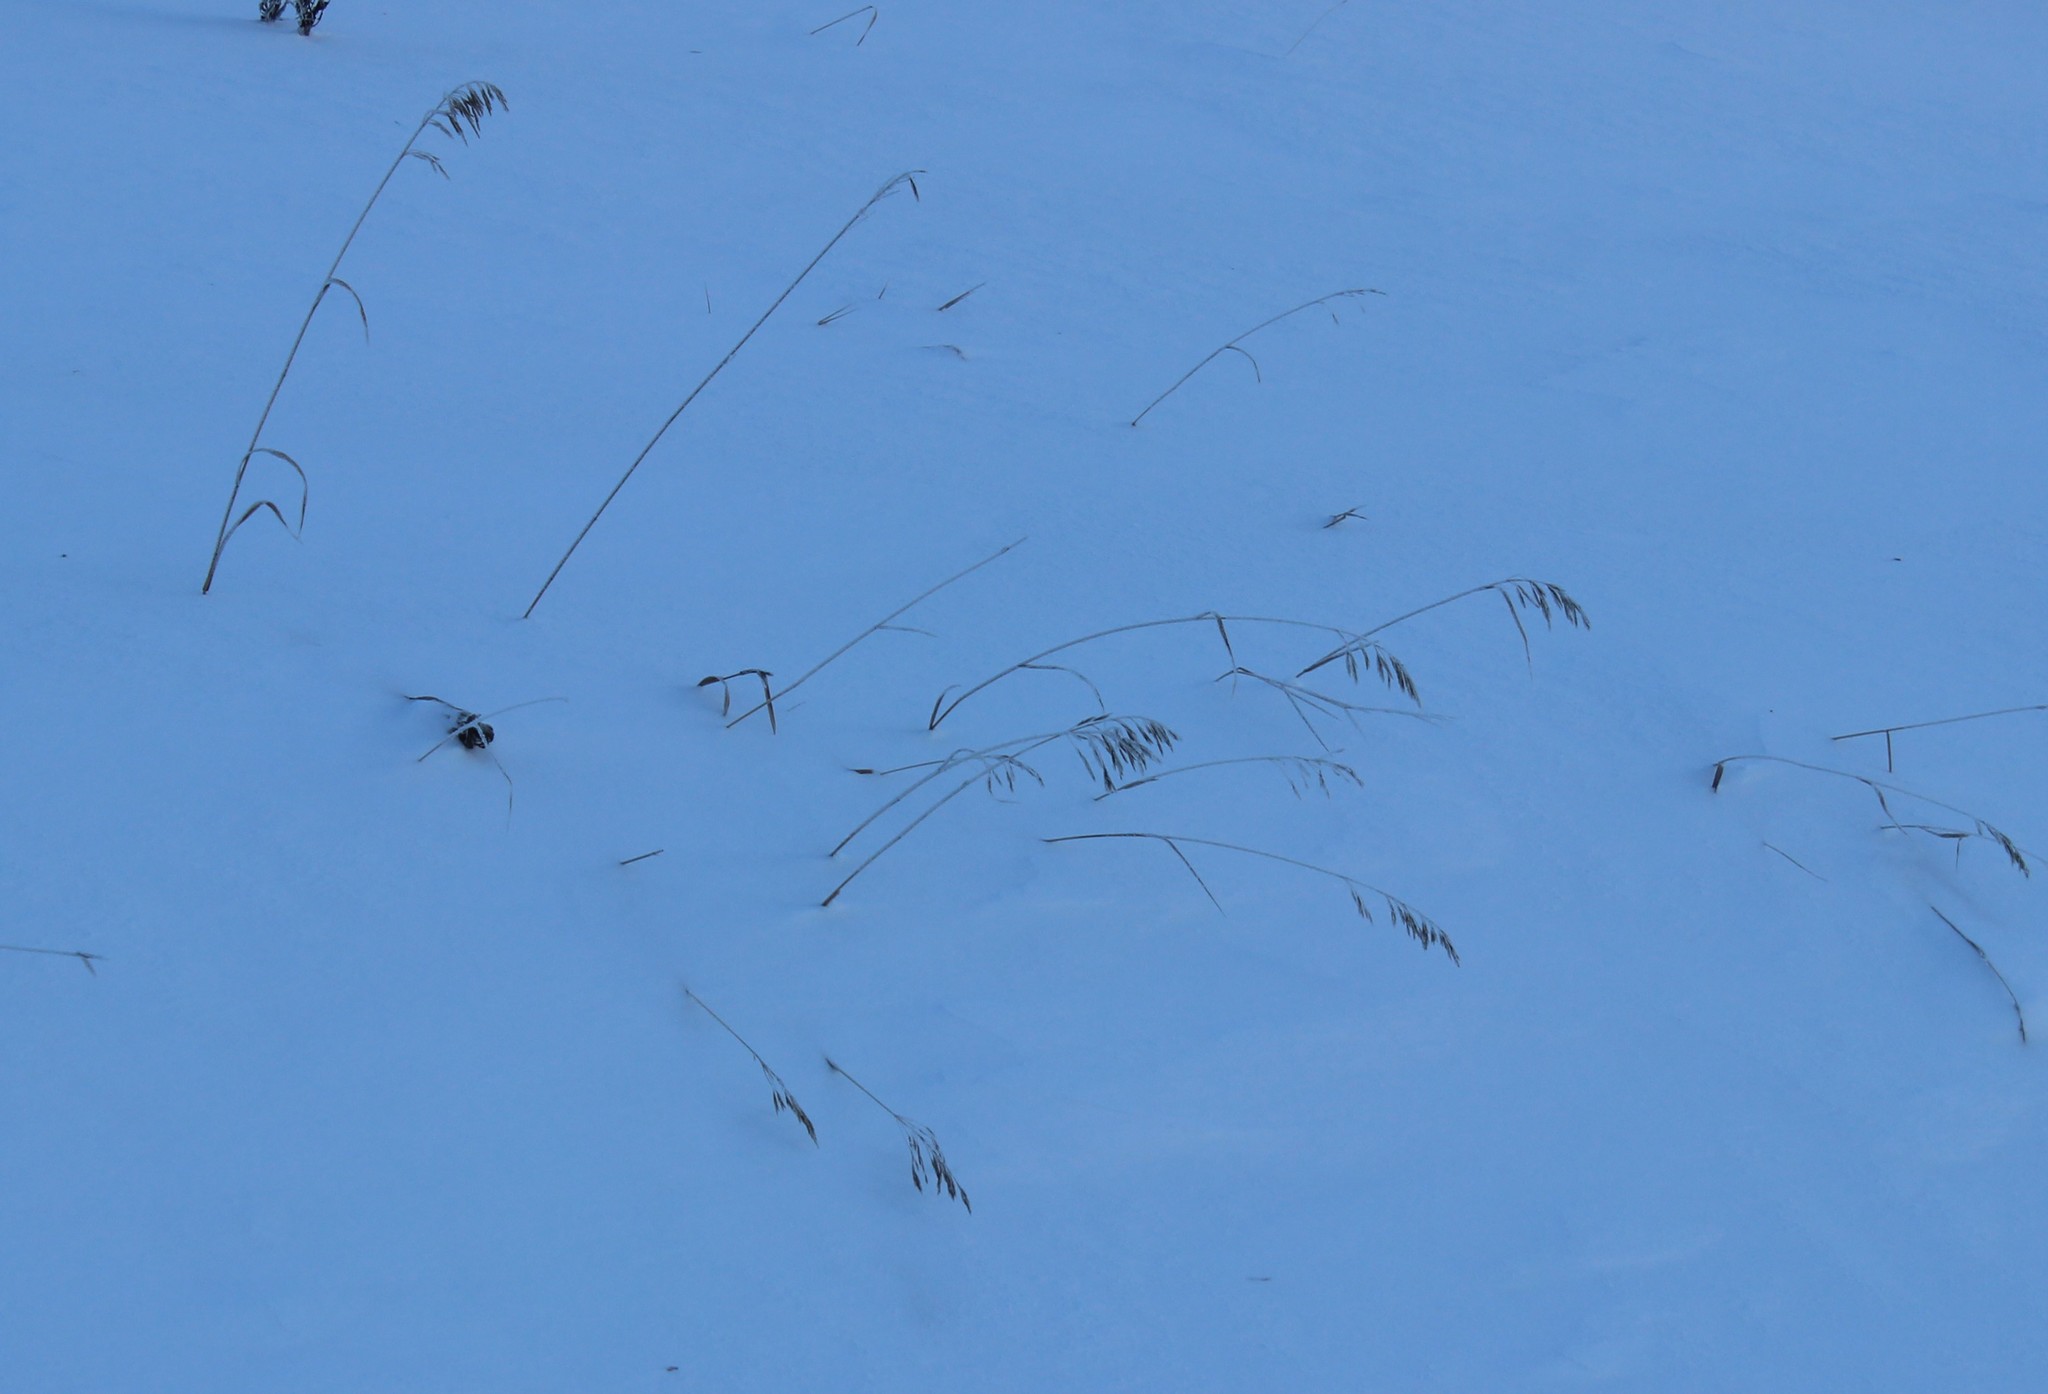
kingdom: Plantae
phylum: Tracheophyta
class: Liliopsida
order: Poales
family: Poaceae
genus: Bromus
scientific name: Bromus inermis
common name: Smooth brome
